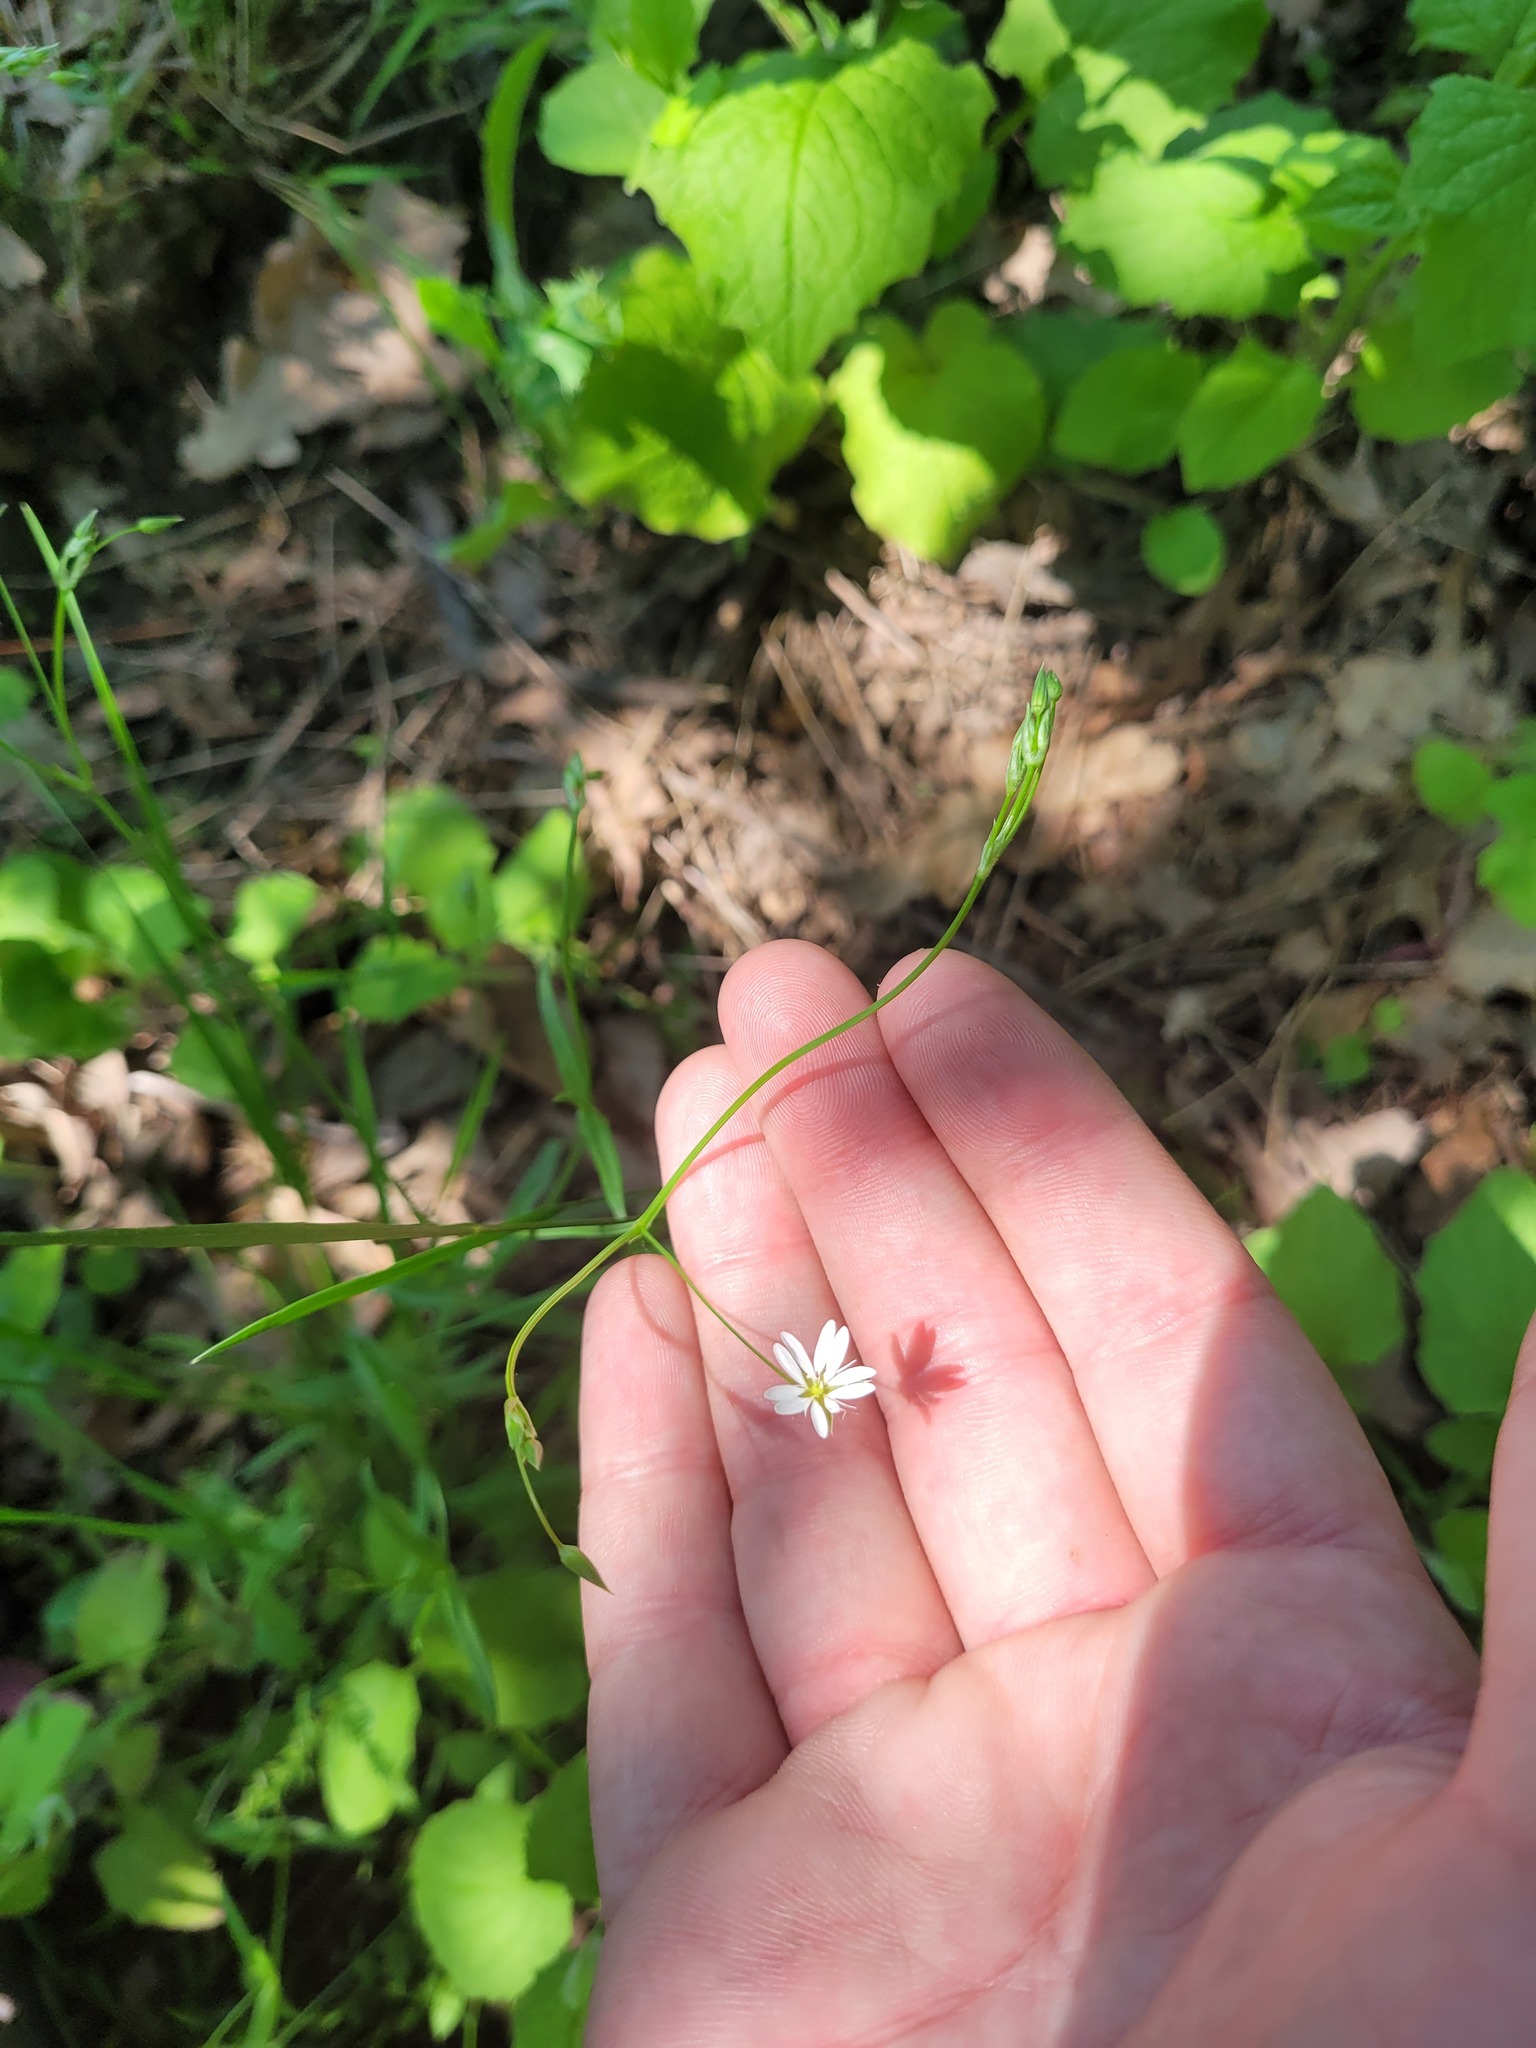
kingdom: Plantae
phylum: Tracheophyta
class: Magnoliopsida
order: Caryophyllales
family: Caryophyllaceae
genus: Stellaria
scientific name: Stellaria graminea
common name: Grass-like starwort
